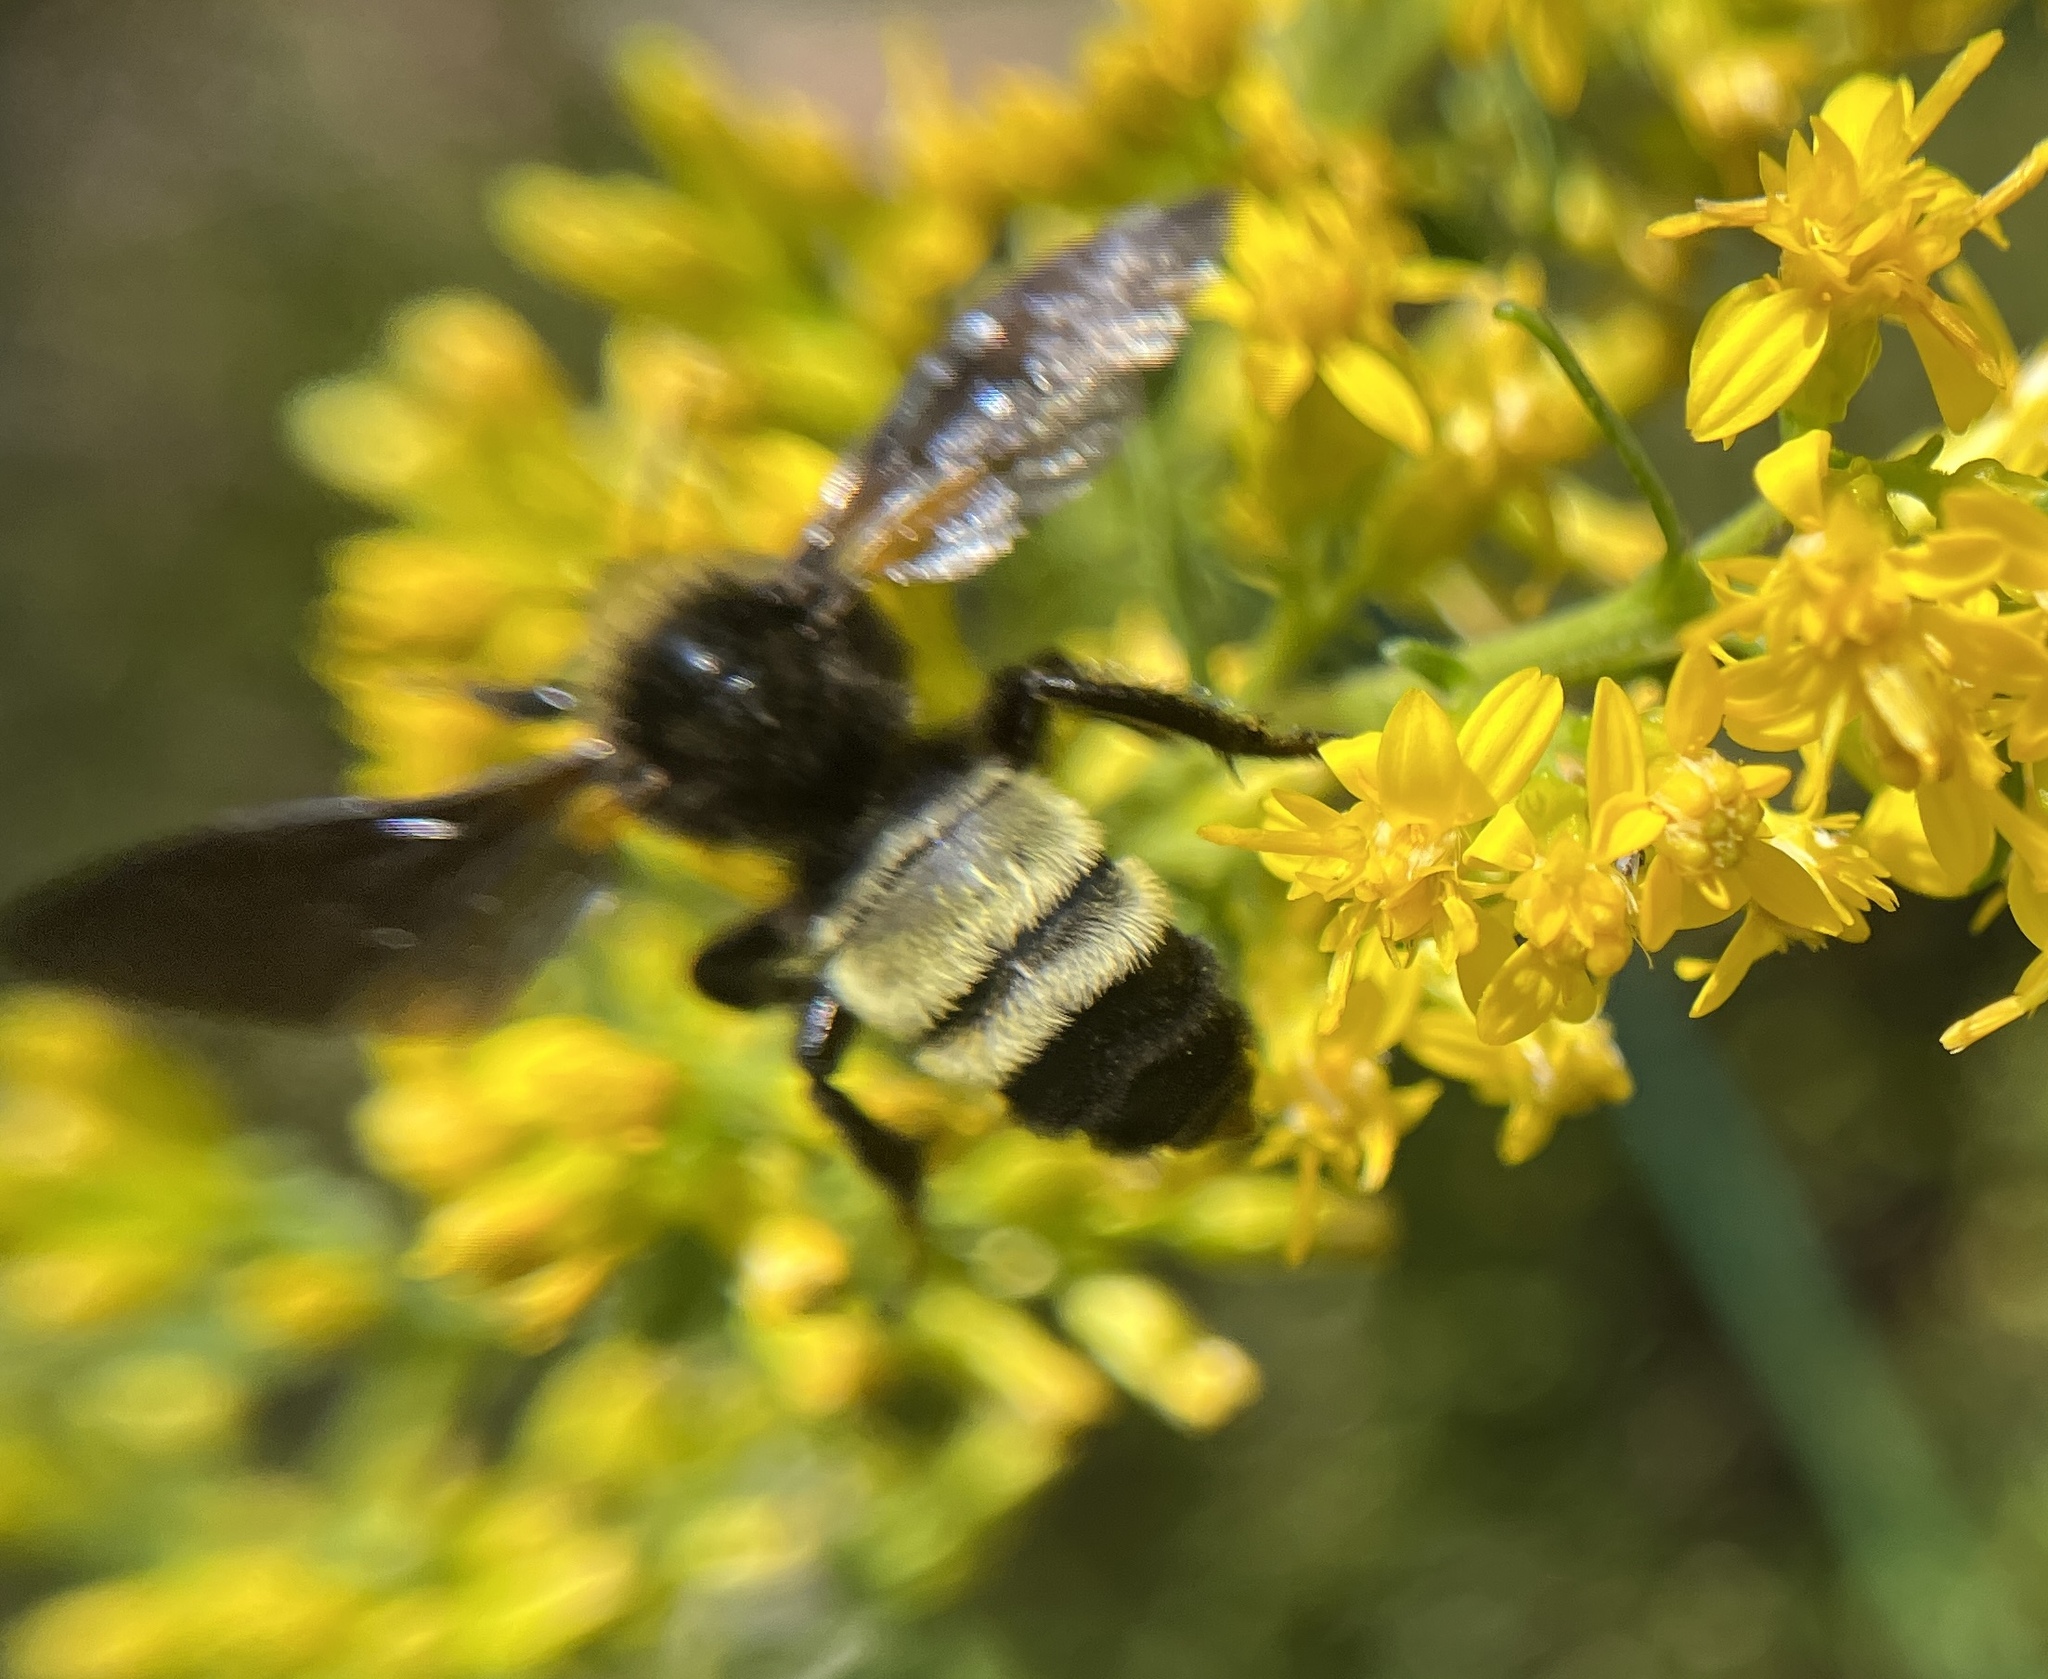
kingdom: Animalia
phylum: Arthropoda
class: Insecta
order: Hymenoptera
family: Apidae
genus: Bombus
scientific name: Bombus pensylvanicus
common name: Bumble bee
